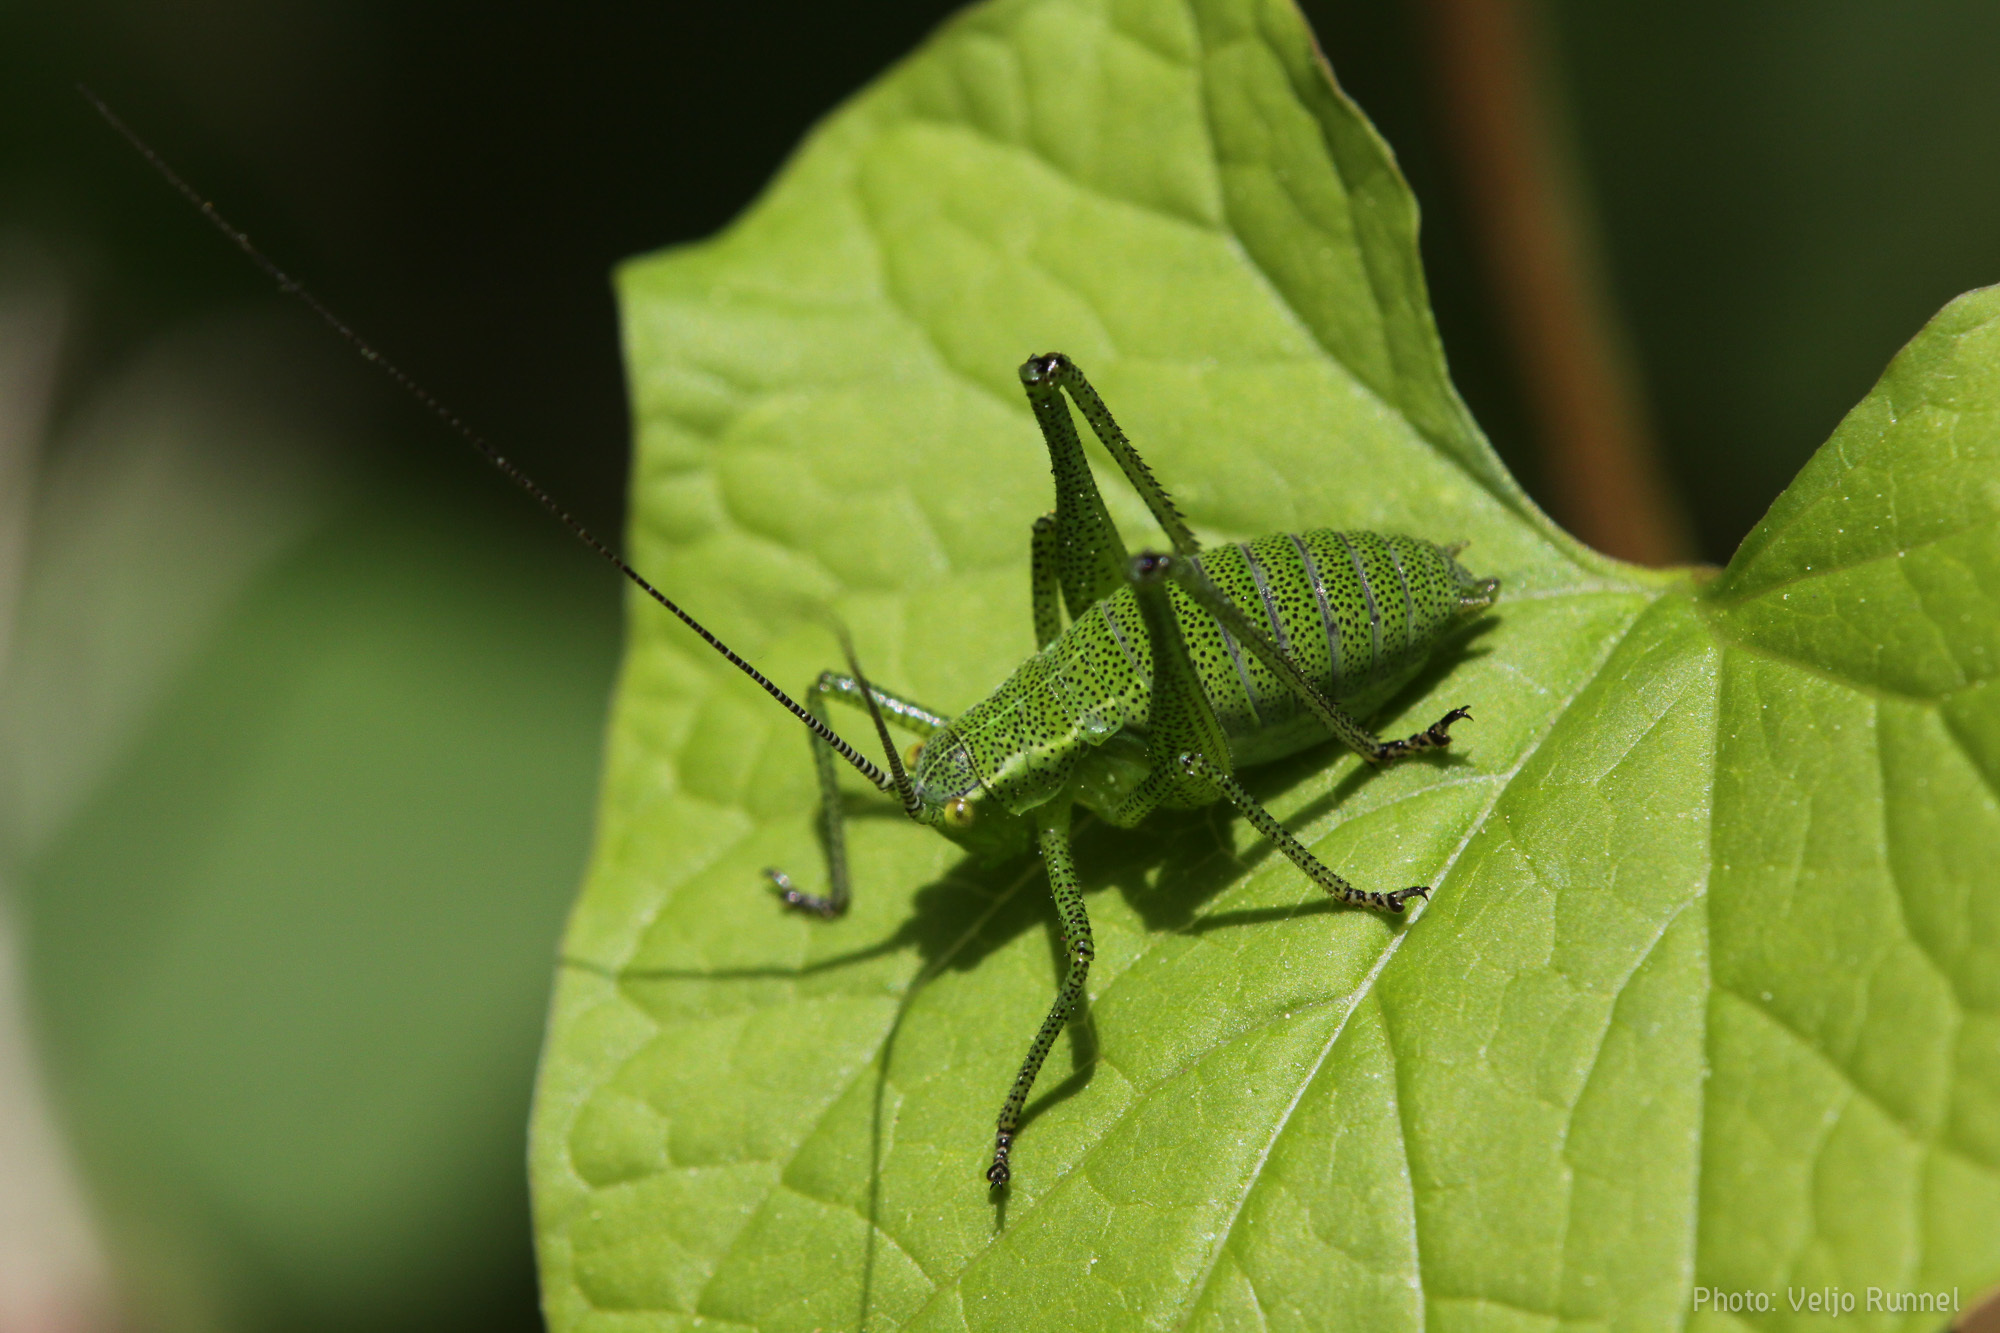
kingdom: Animalia
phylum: Arthropoda
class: Insecta
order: Orthoptera
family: Tettigoniidae
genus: Leptophyes
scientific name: Leptophyes punctatissima
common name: Speckled bush-cricket
